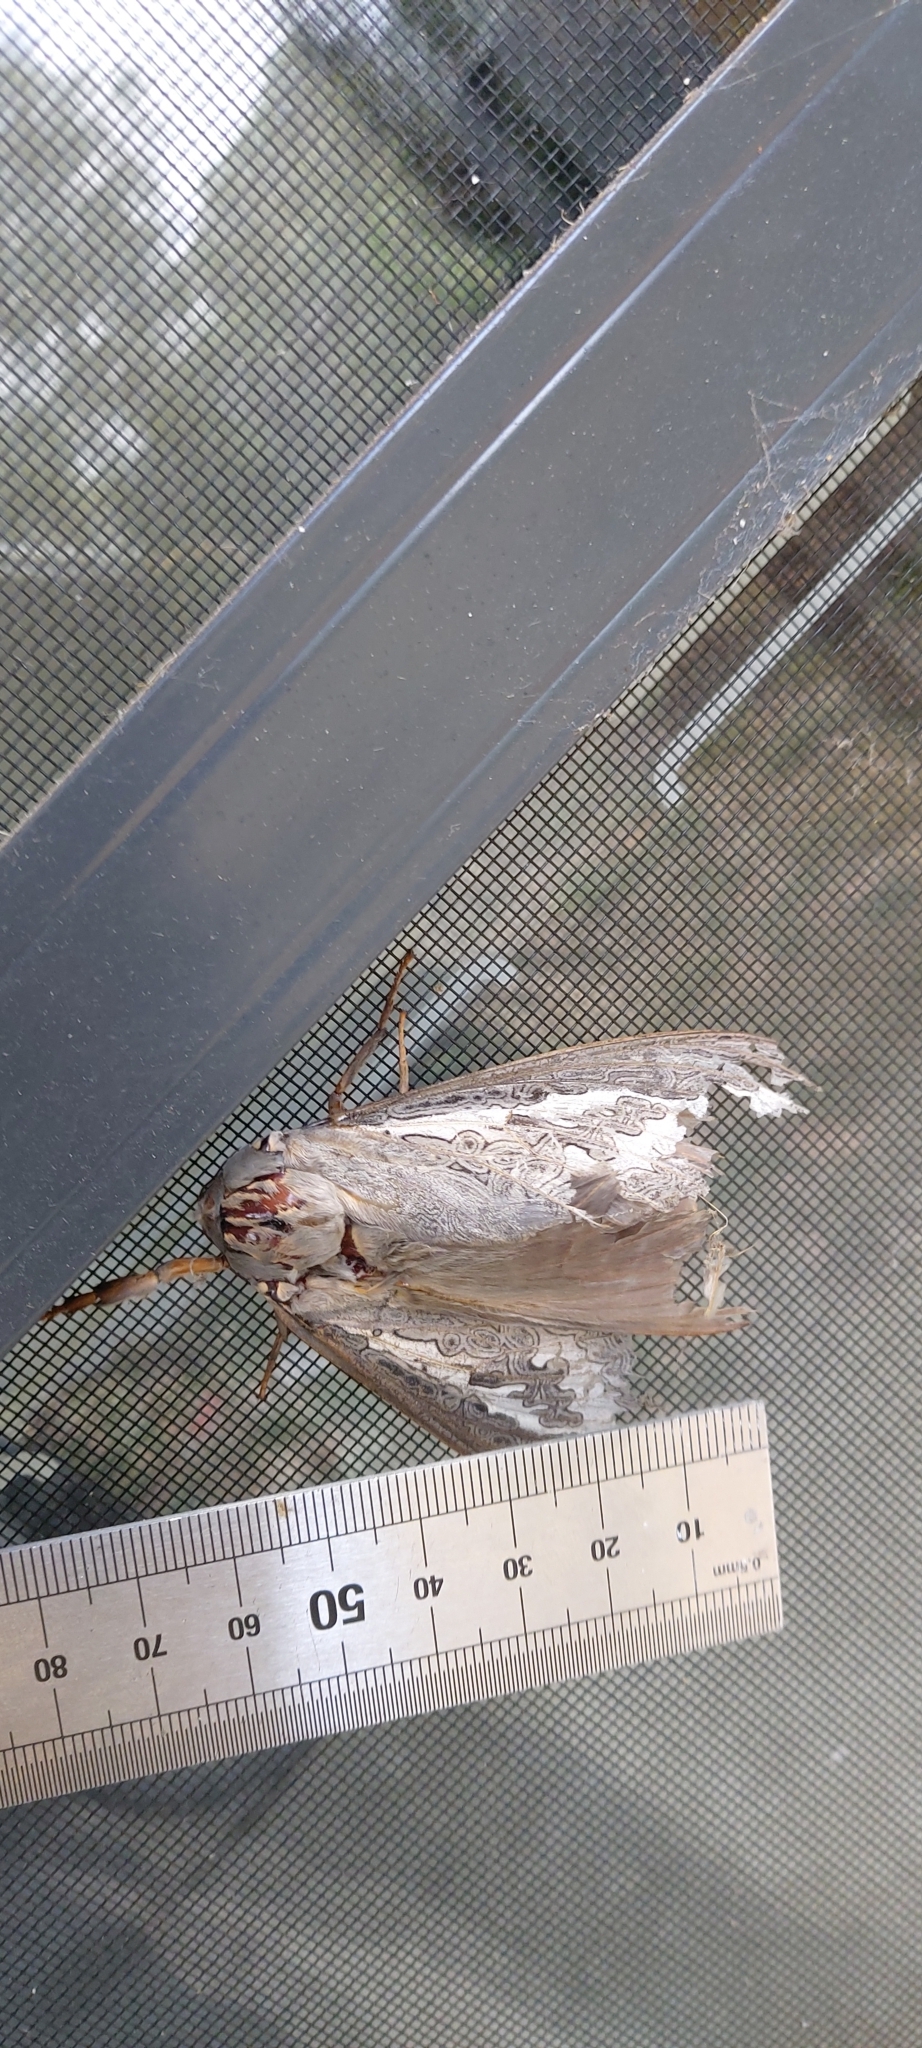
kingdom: Animalia
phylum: Arthropoda
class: Insecta
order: Lepidoptera
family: Hepialidae
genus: Abantiades
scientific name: Abantiades marcidus
